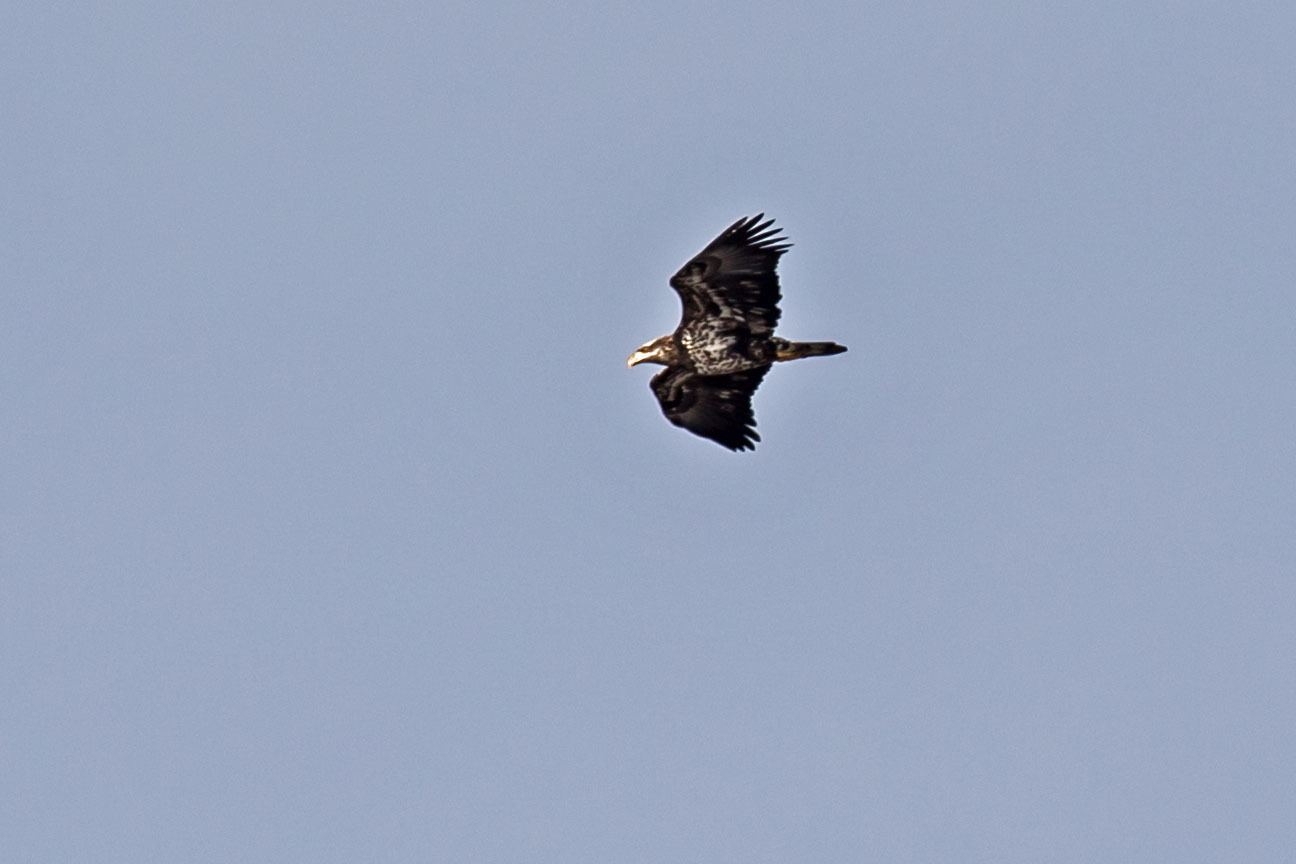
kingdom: Animalia
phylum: Chordata
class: Aves
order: Accipitriformes
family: Accipitridae
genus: Haliaeetus
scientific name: Haliaeetus leucocephalus
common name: Bald eagle
